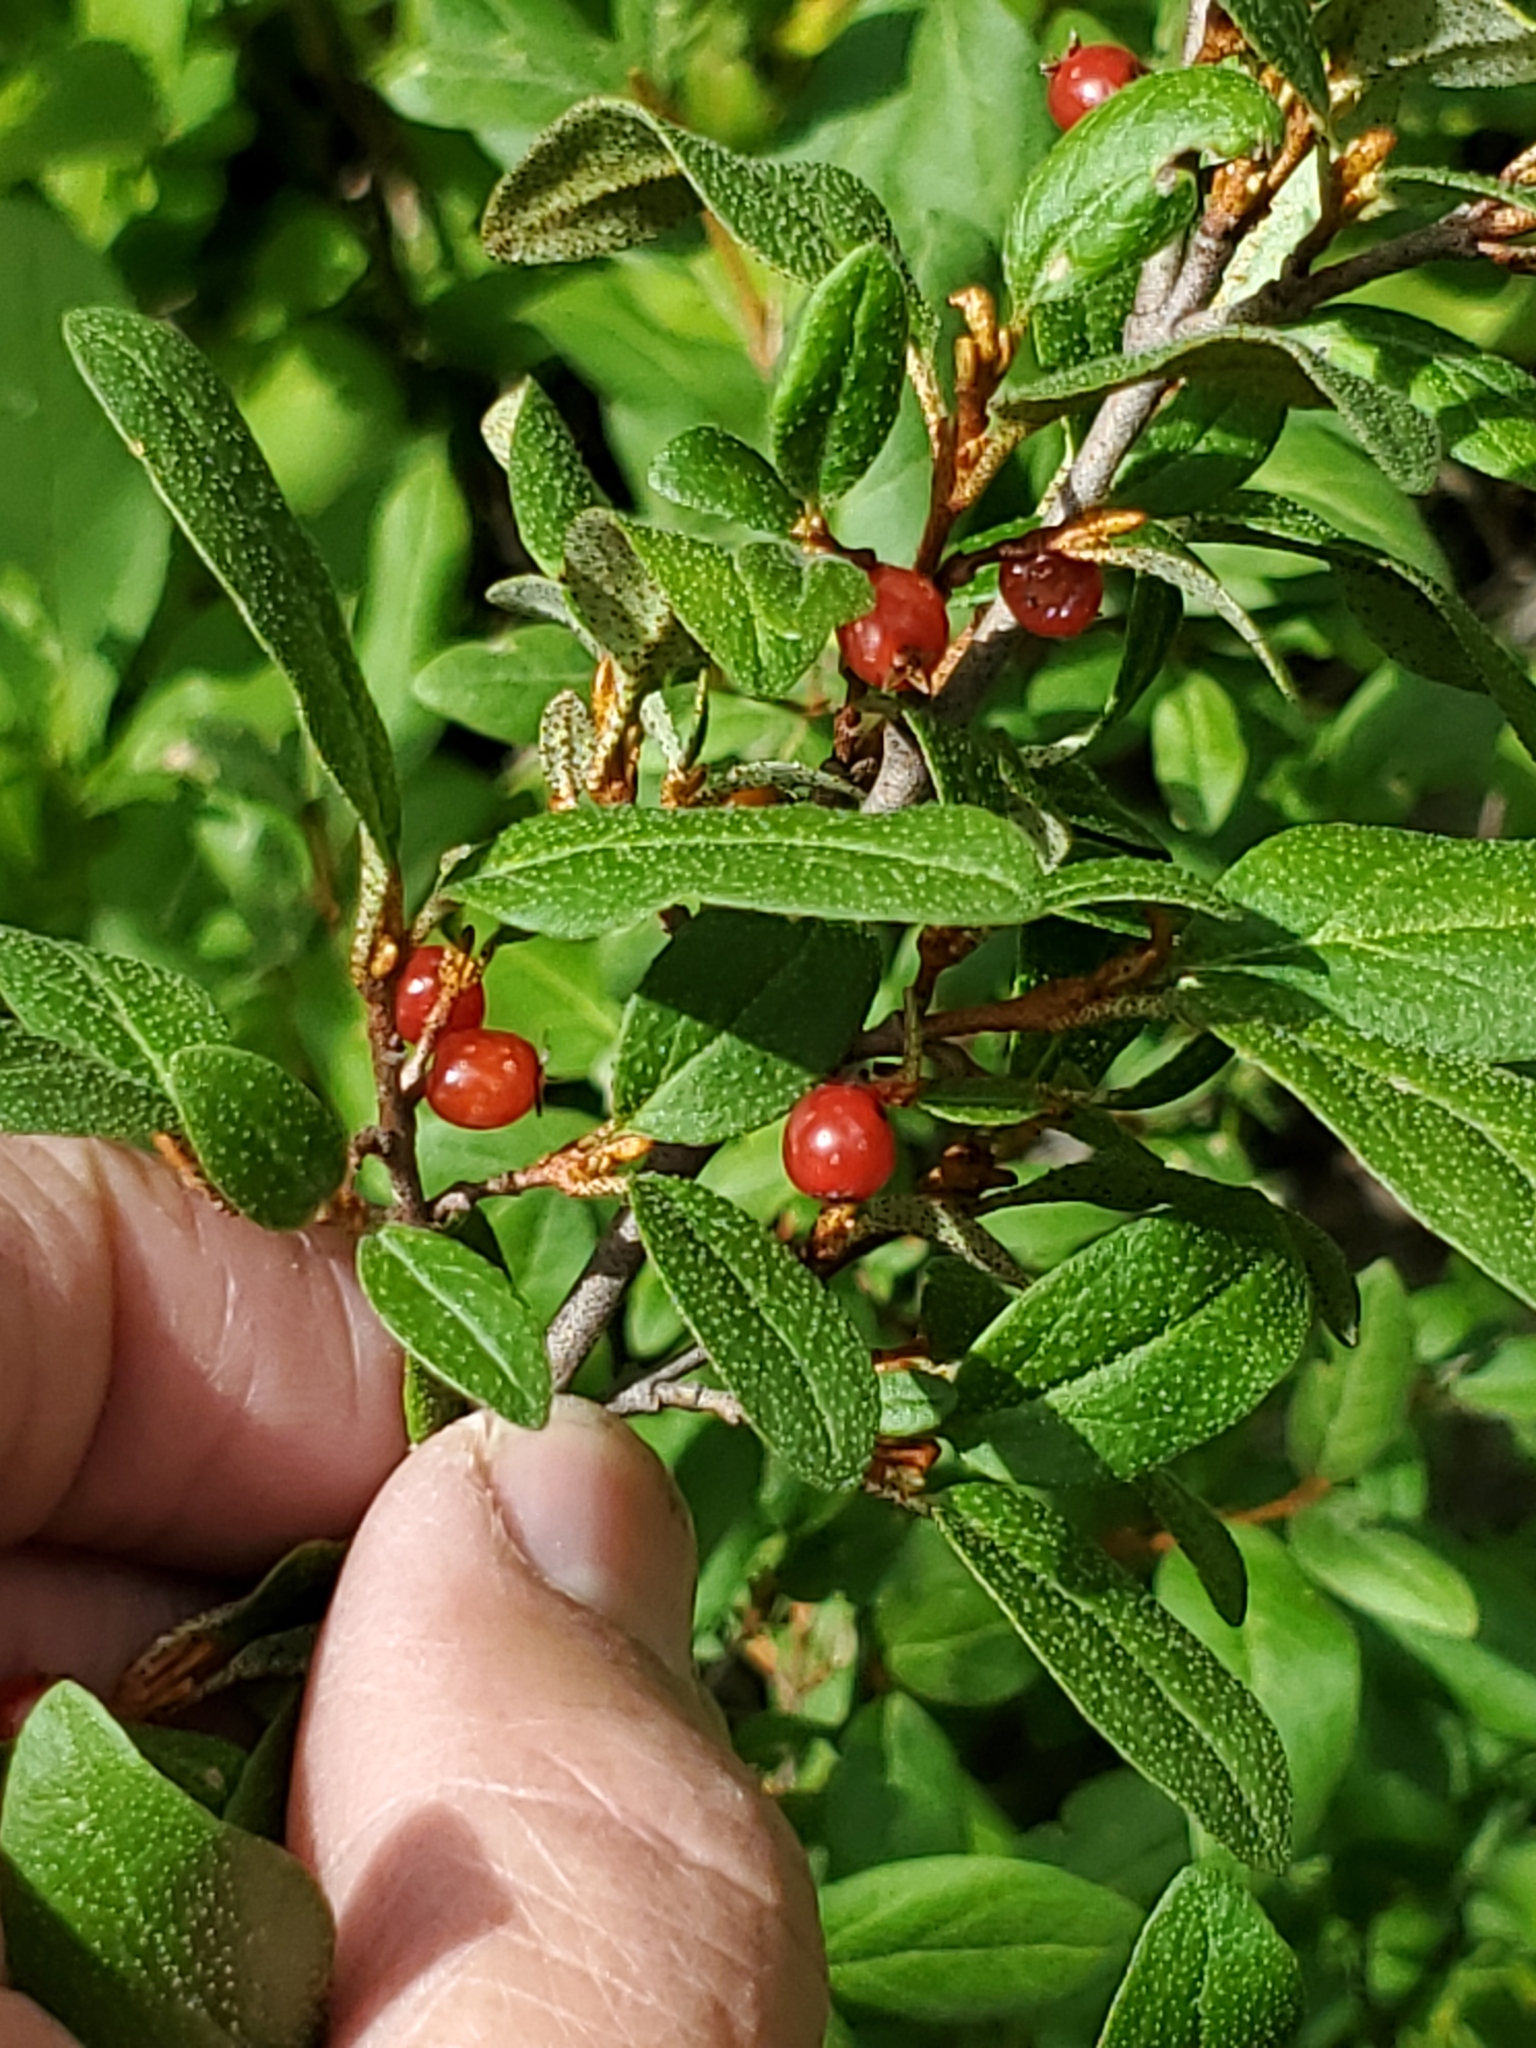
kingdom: Plantae
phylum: Tracheophyta
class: Magnoliopsida
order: Rosales
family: Elaeagnaceae
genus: Shepherdia
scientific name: Shepherdia canadensis
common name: Soapberry
